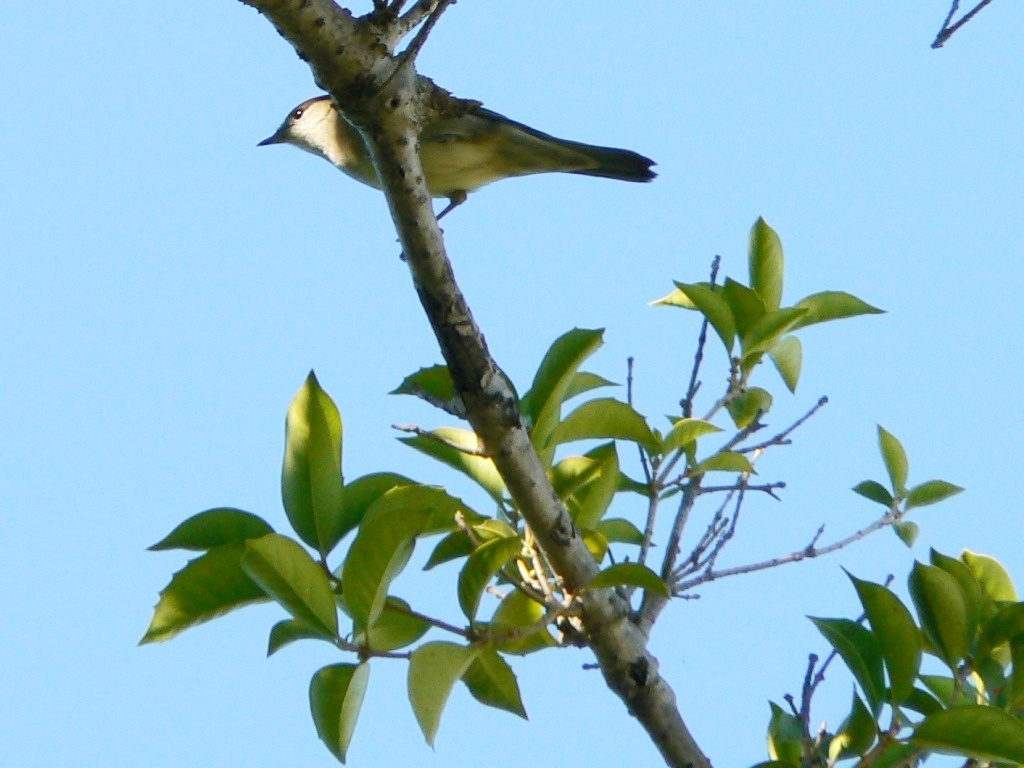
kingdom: Animalia
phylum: Chordata
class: Aves
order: Passeriformes
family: Sylviidae
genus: Sylvia
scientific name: Sylvia atricapilla
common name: Eurasian blackcap
